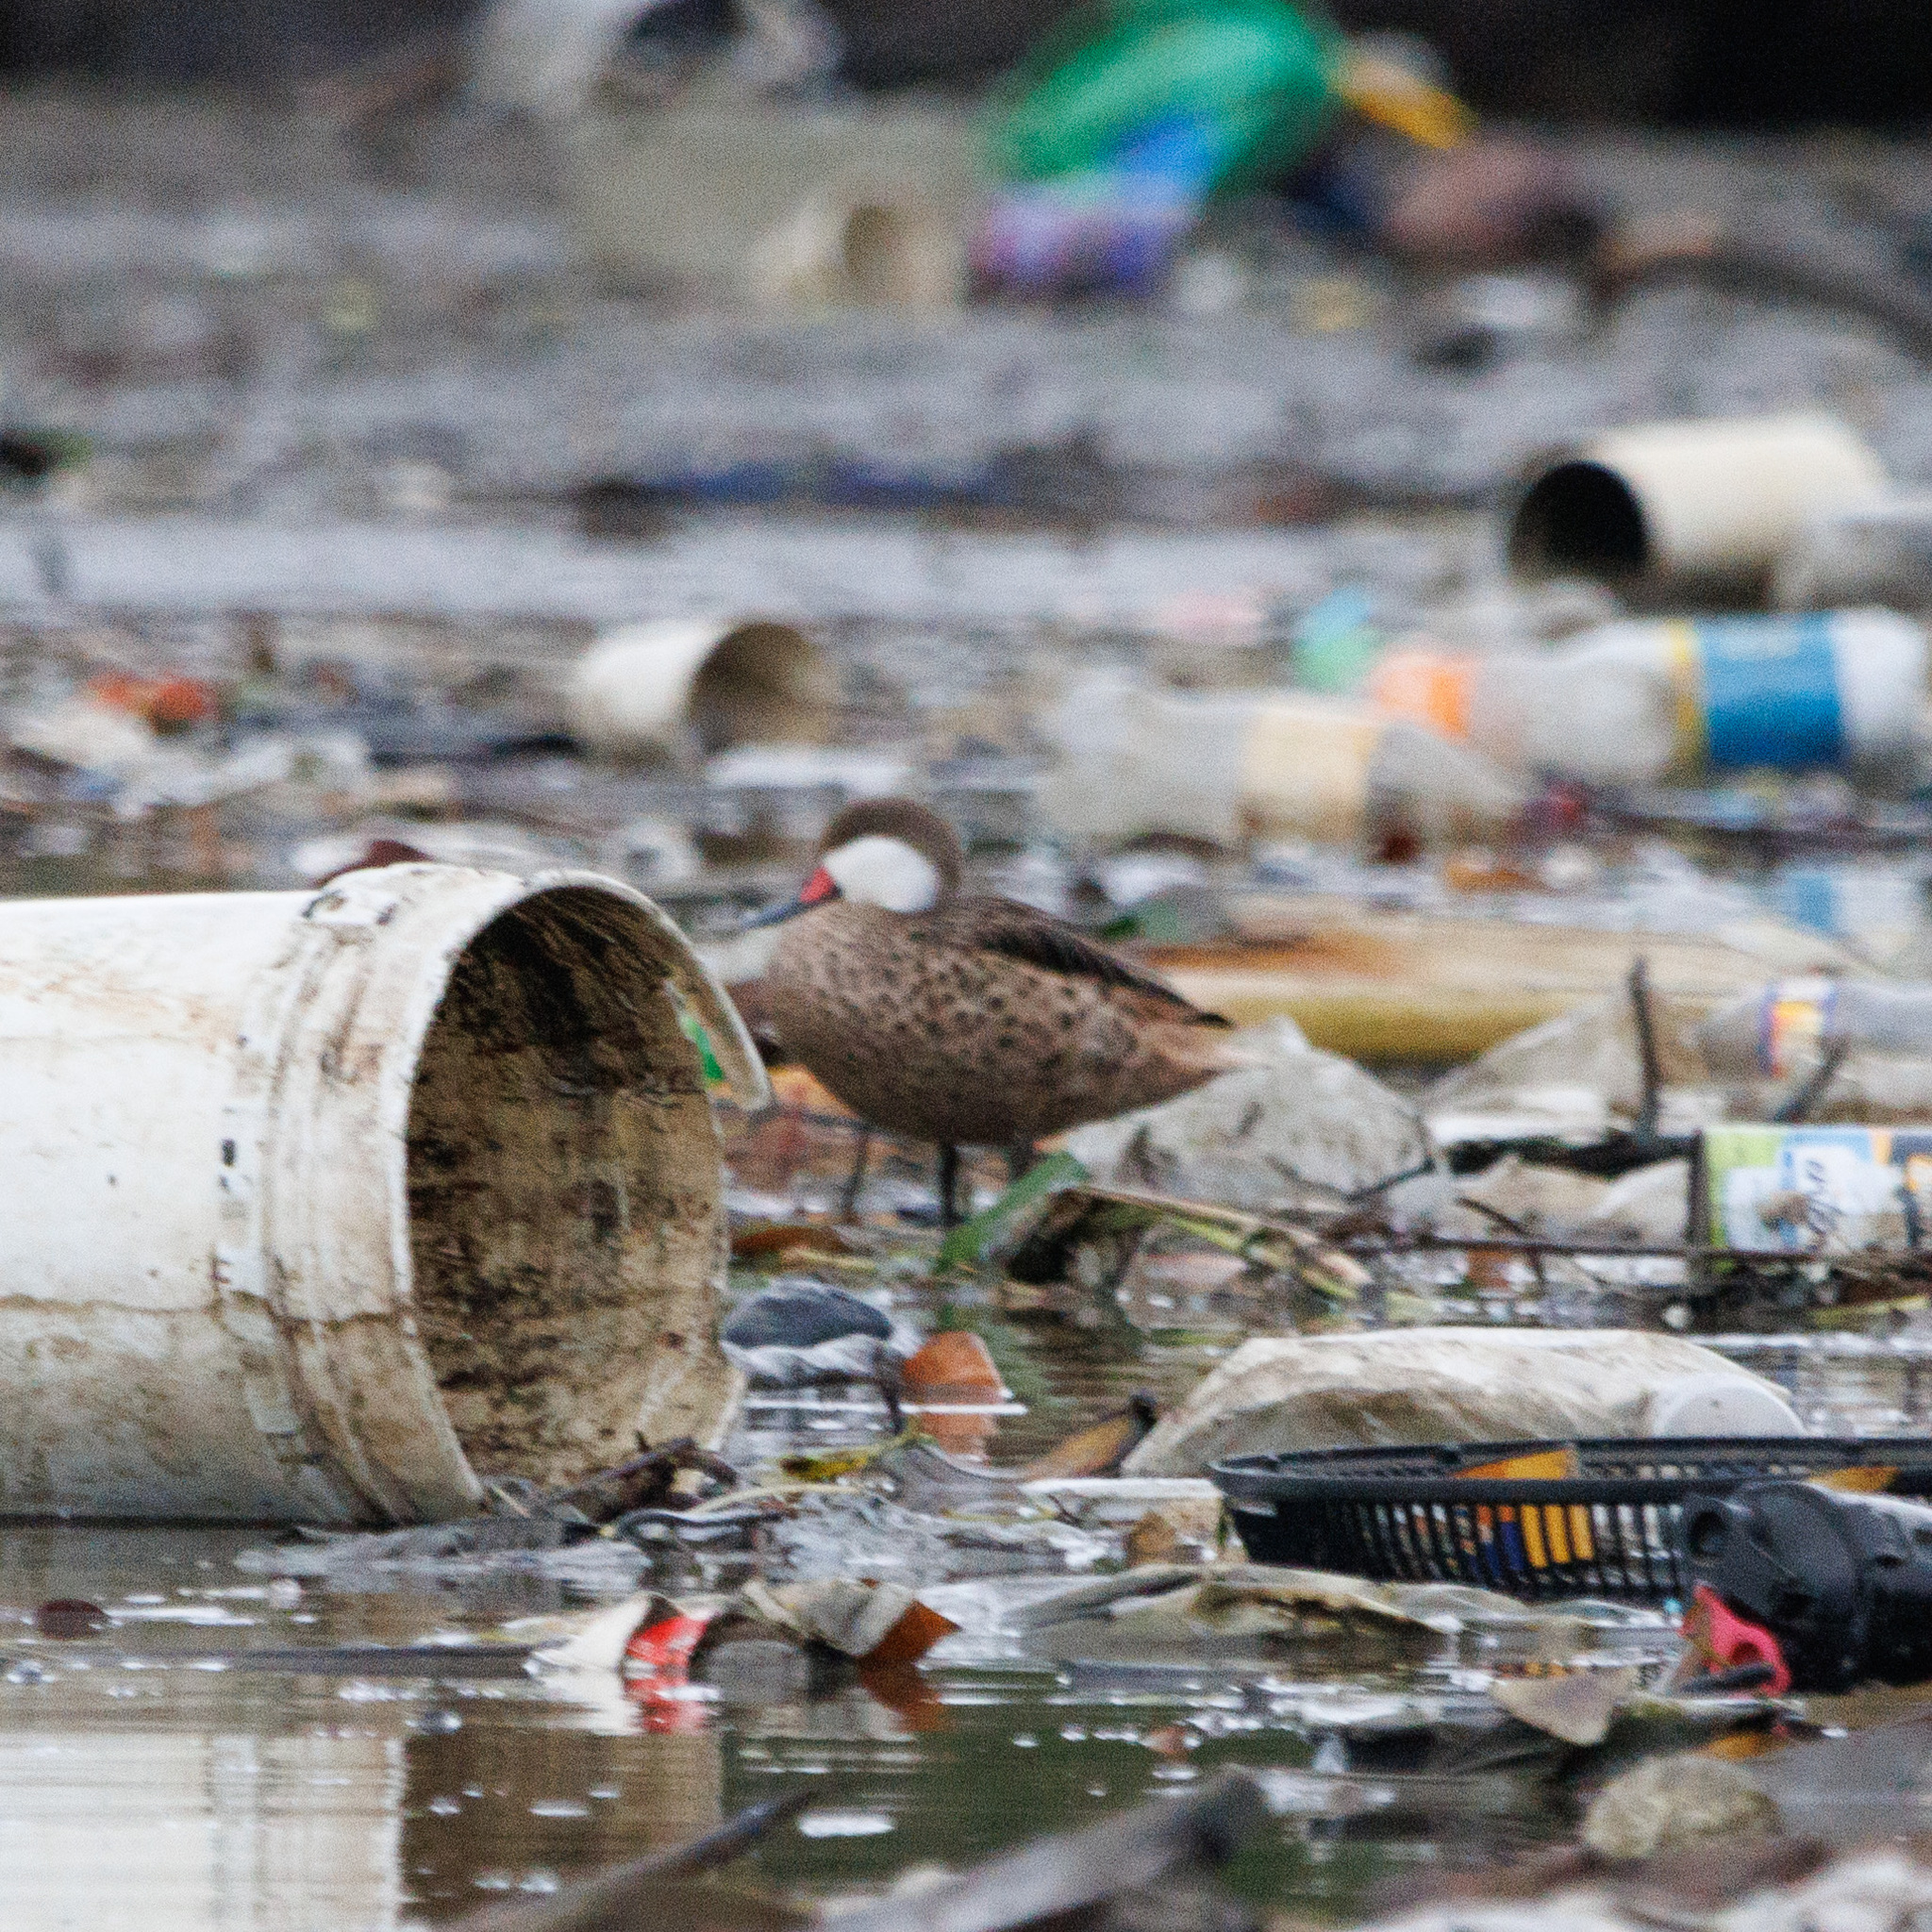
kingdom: Animalia
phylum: Chordata
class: Aves
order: Anseriformes
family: Anatidae
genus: Anas
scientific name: Anas bahamensis
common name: White-cheeked pintail
